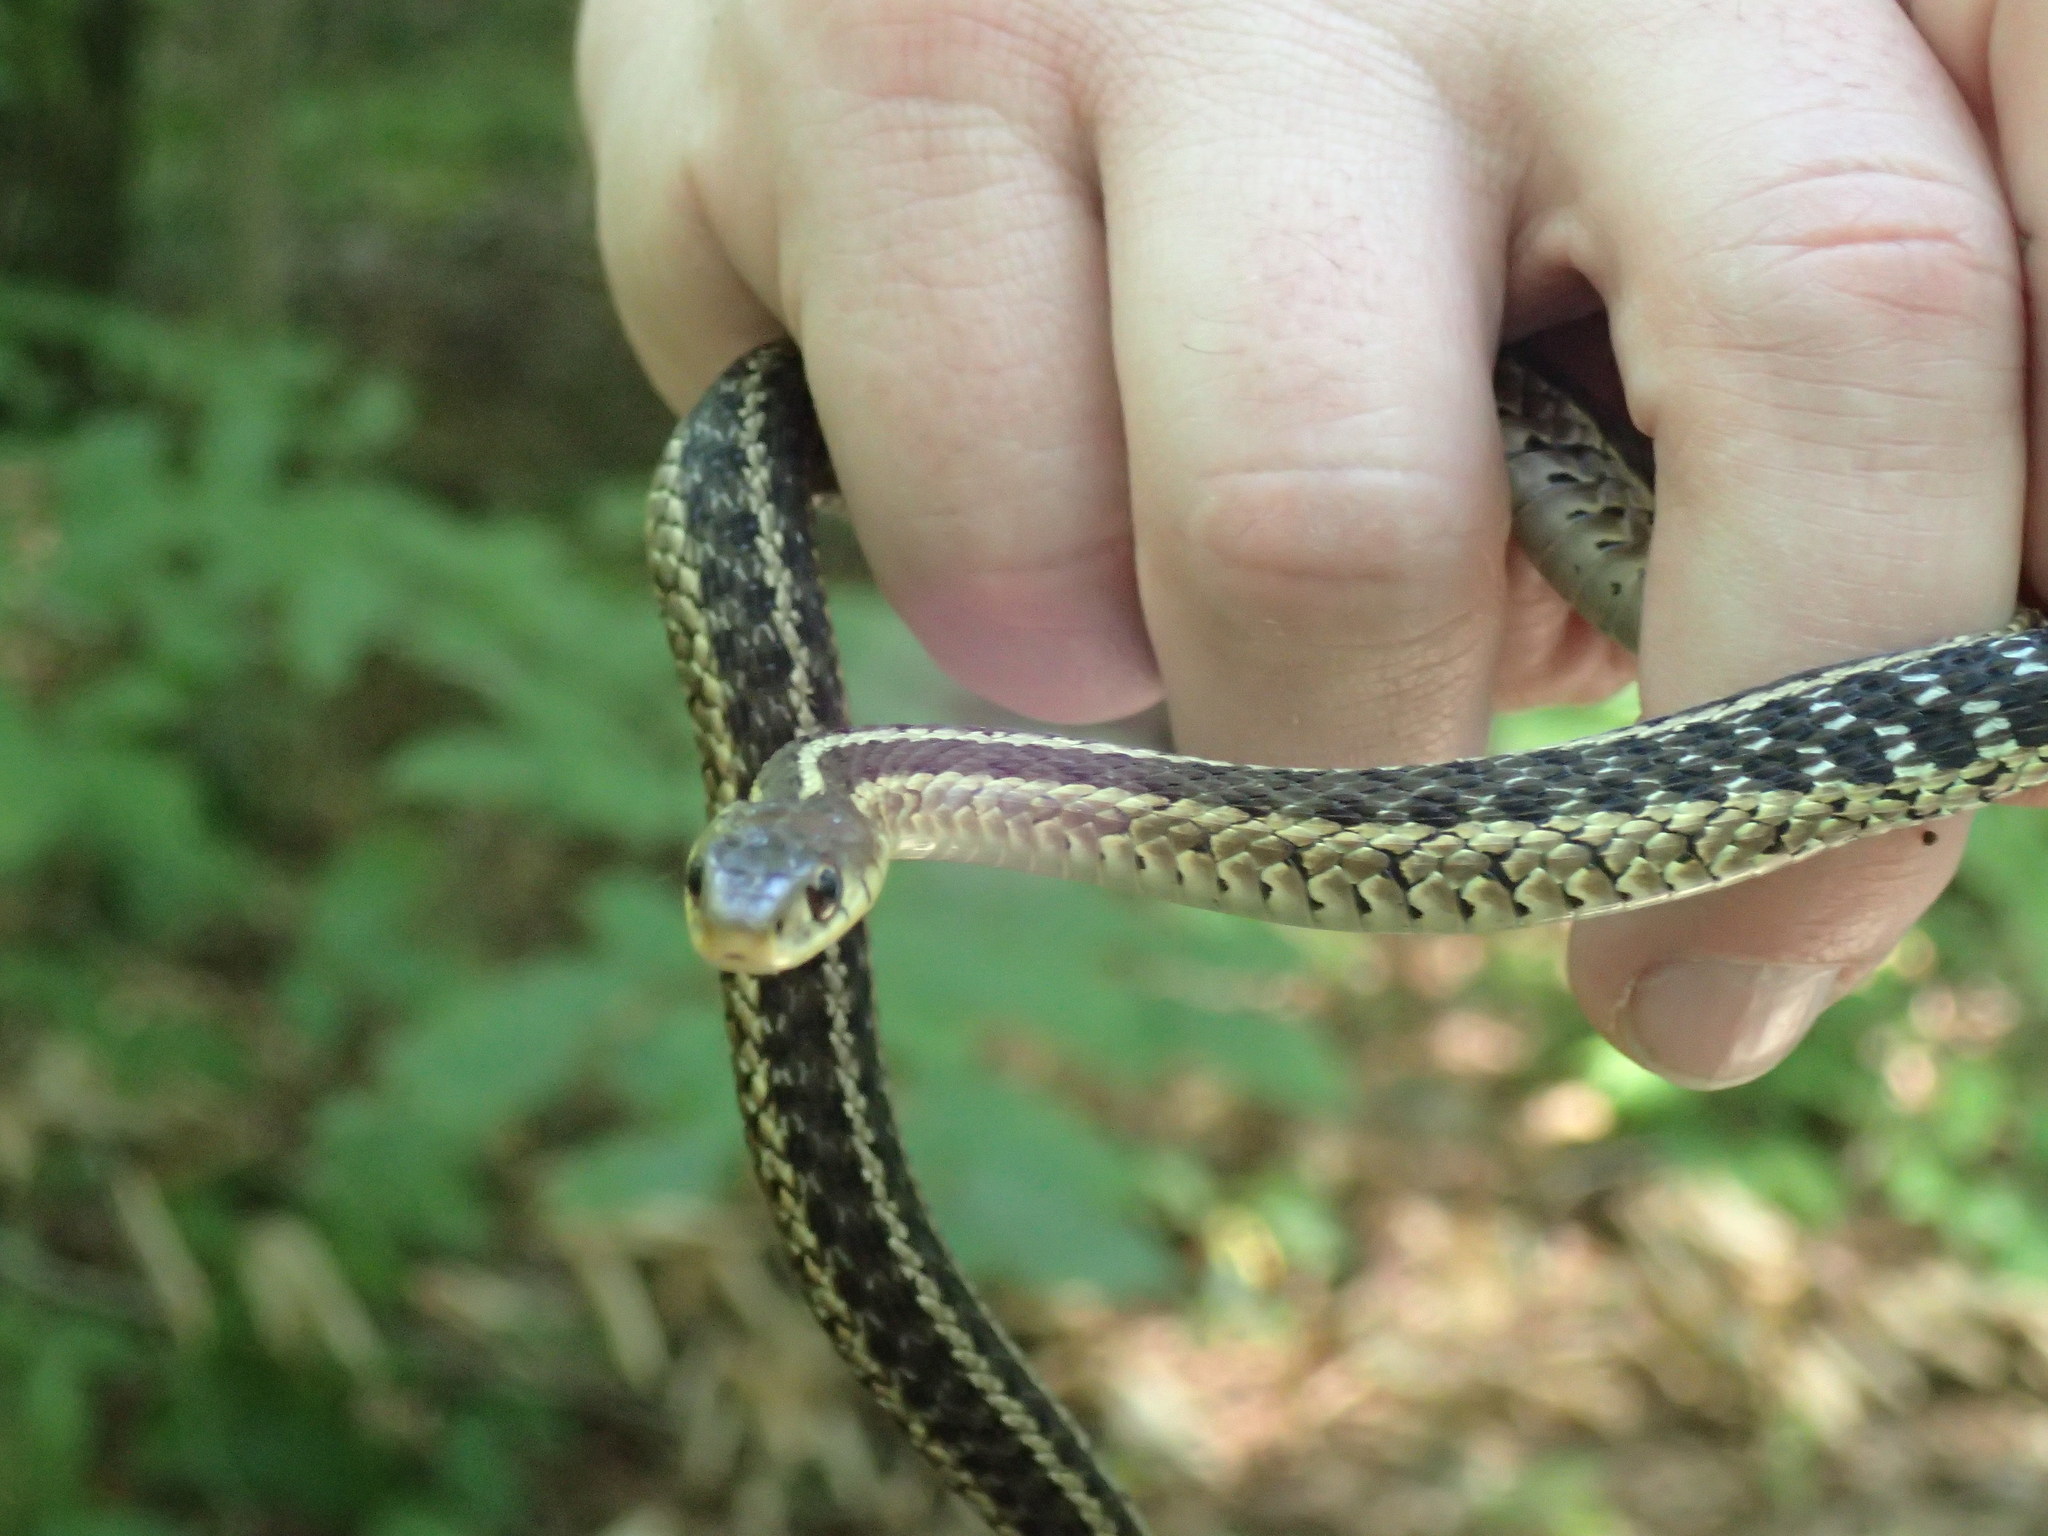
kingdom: Animalia
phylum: Chordata
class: Squamata
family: Colubridae
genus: Thamnophis
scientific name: Thamnophis sirtalis
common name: Common garter snake
